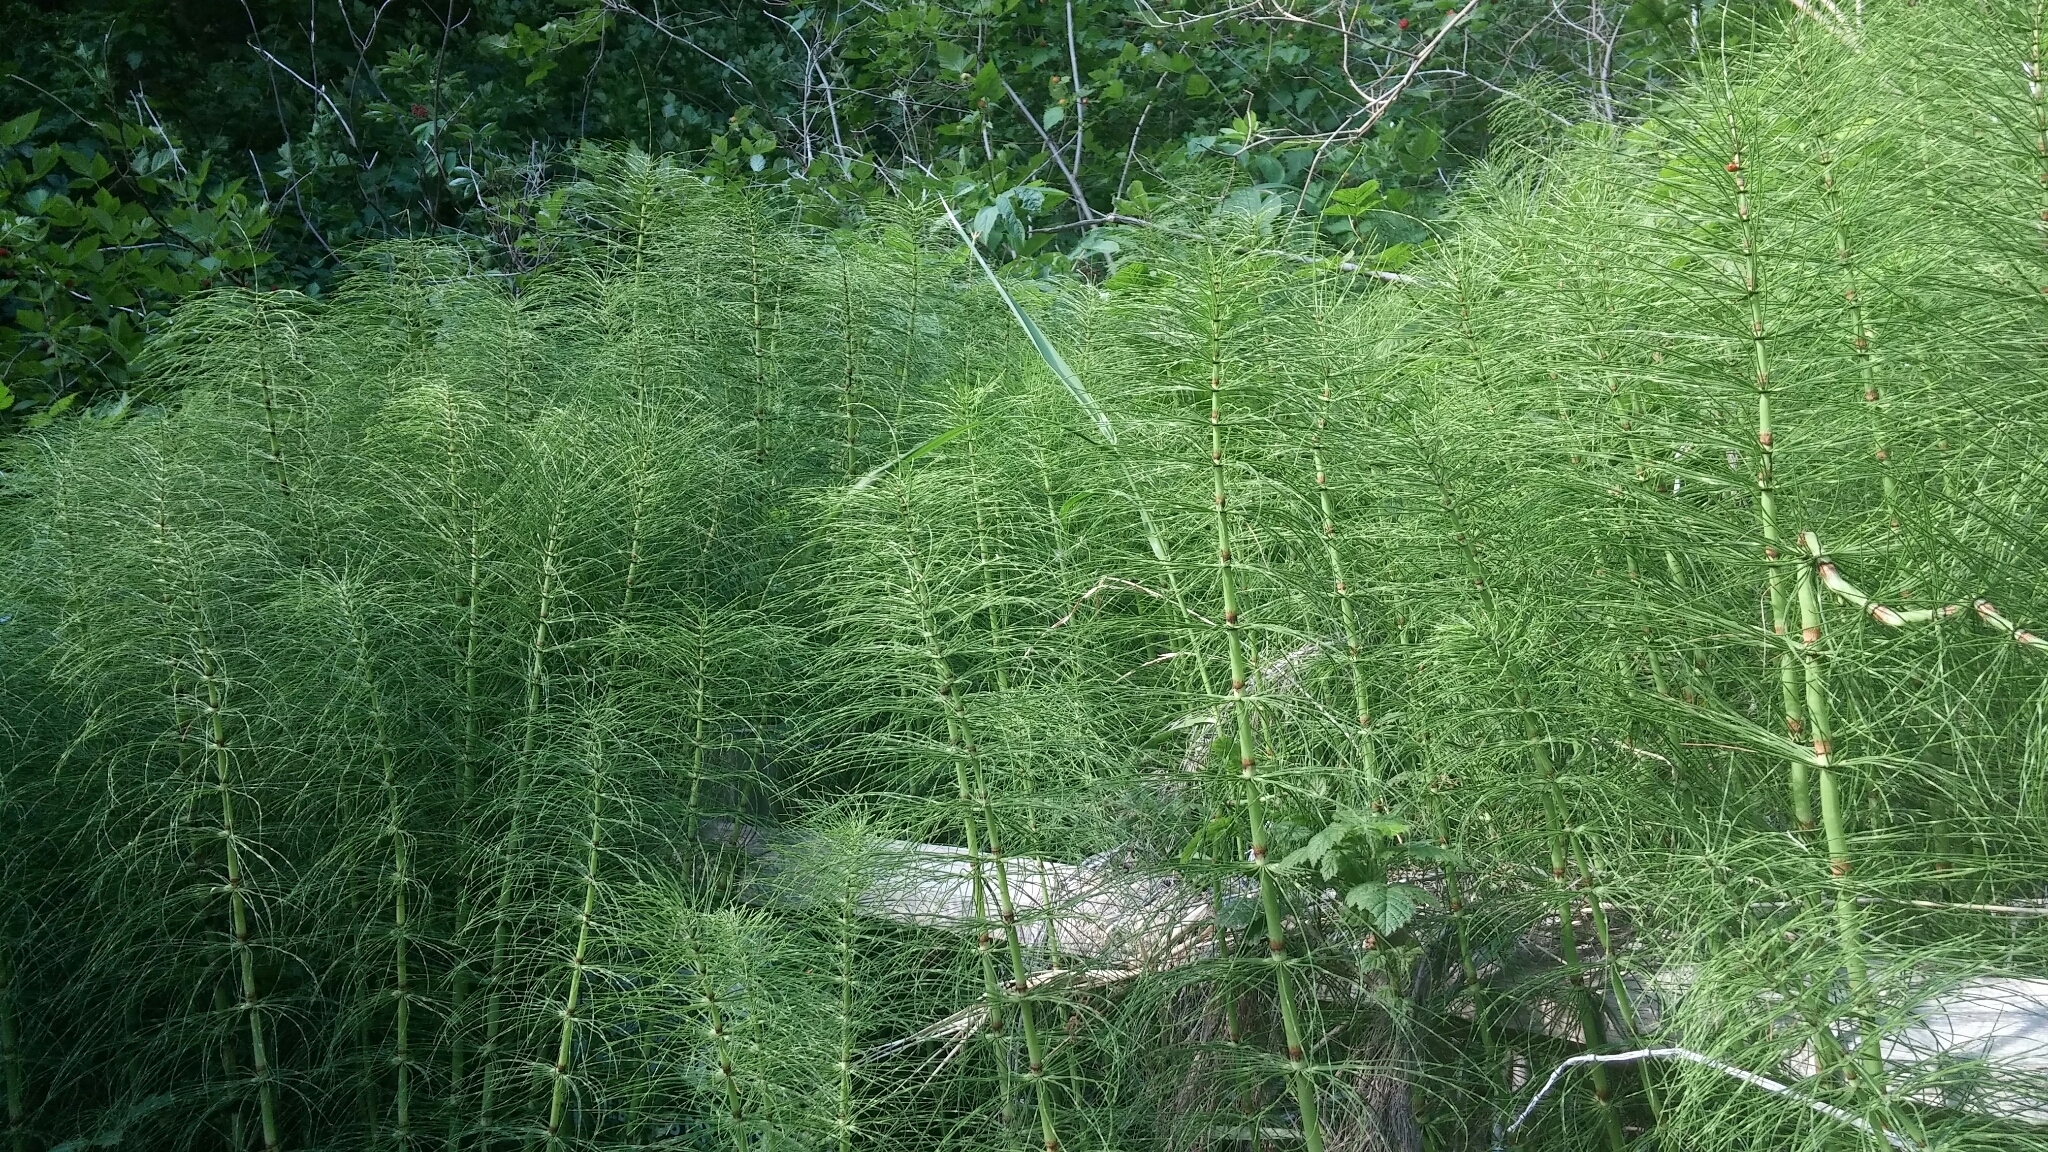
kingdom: Plantae
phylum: Tracheophyta
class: Polypodiopsida
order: Equisetales
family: Equisetaceae
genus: Equisetum
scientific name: Equisetum telmateia
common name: Great horsetail
